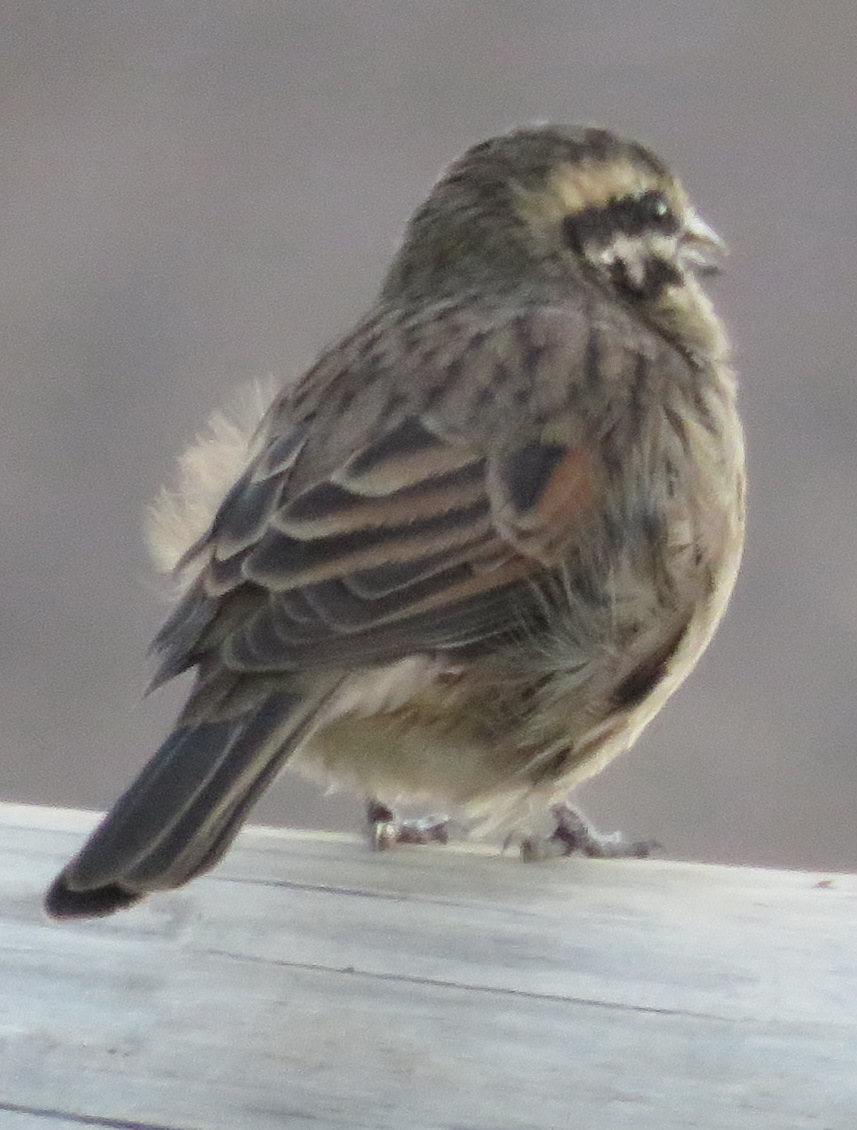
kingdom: Animalia
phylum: Chordata
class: Aves
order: Passeriformes
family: Emberizidae
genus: Emberiza
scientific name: Emberiza capensis
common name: Cape bunting
